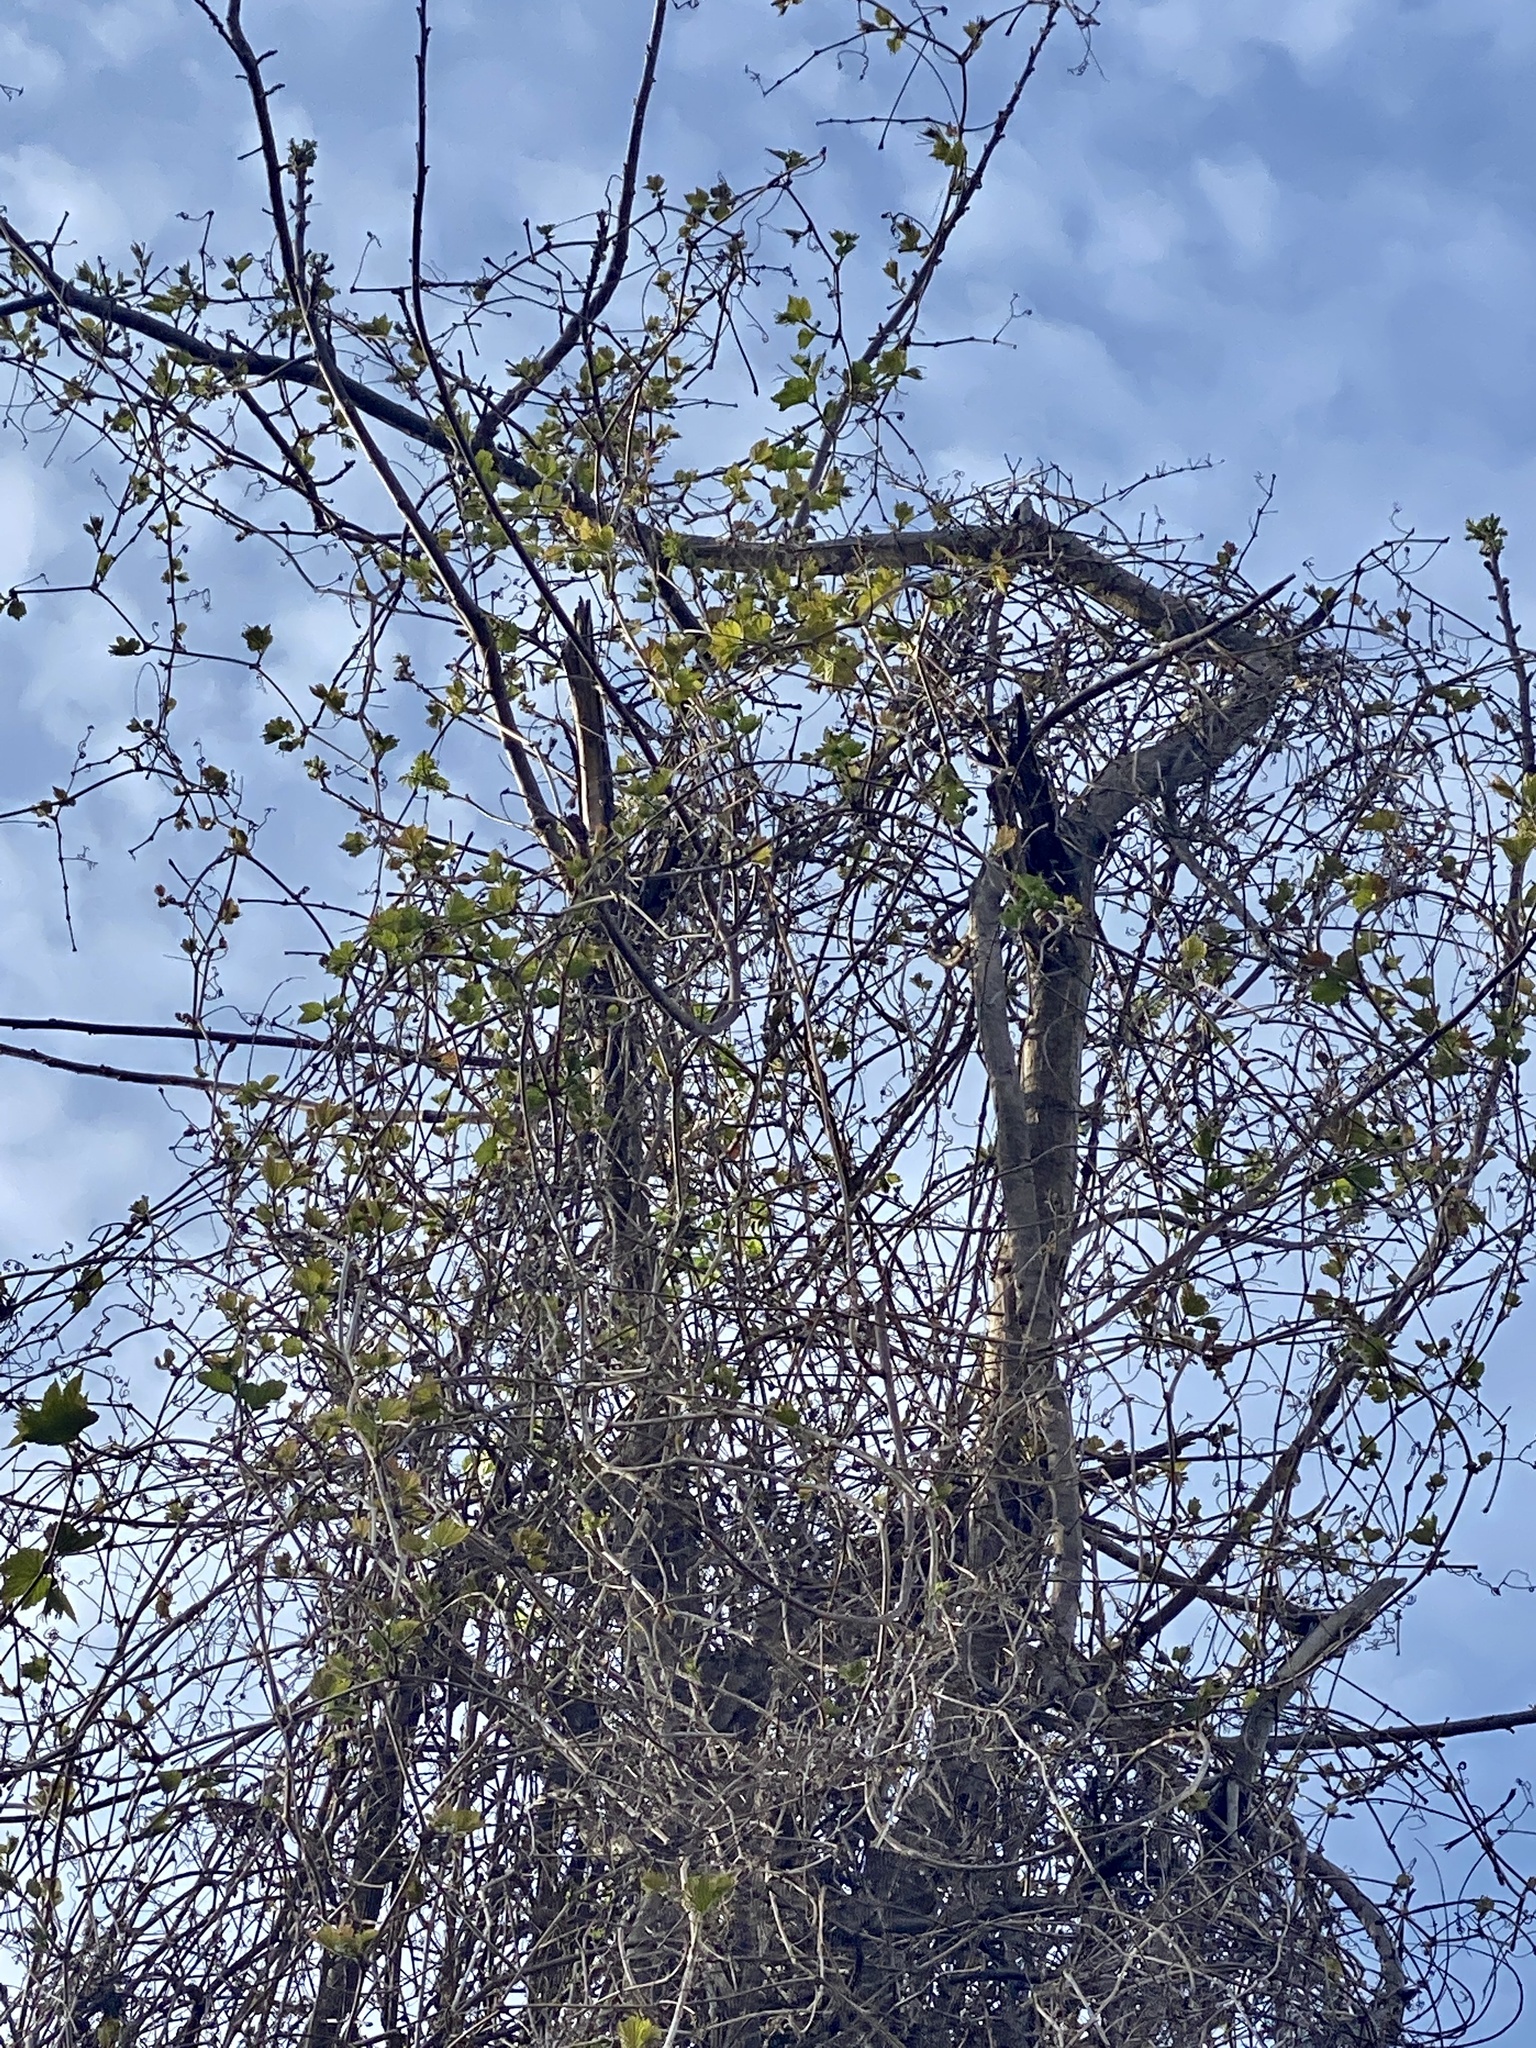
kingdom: Plantae
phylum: Tracheophyta
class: Magnoliopsida
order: Fagales
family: Juglandaceae
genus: Juglans
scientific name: Juglans nigra
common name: Black walnut
